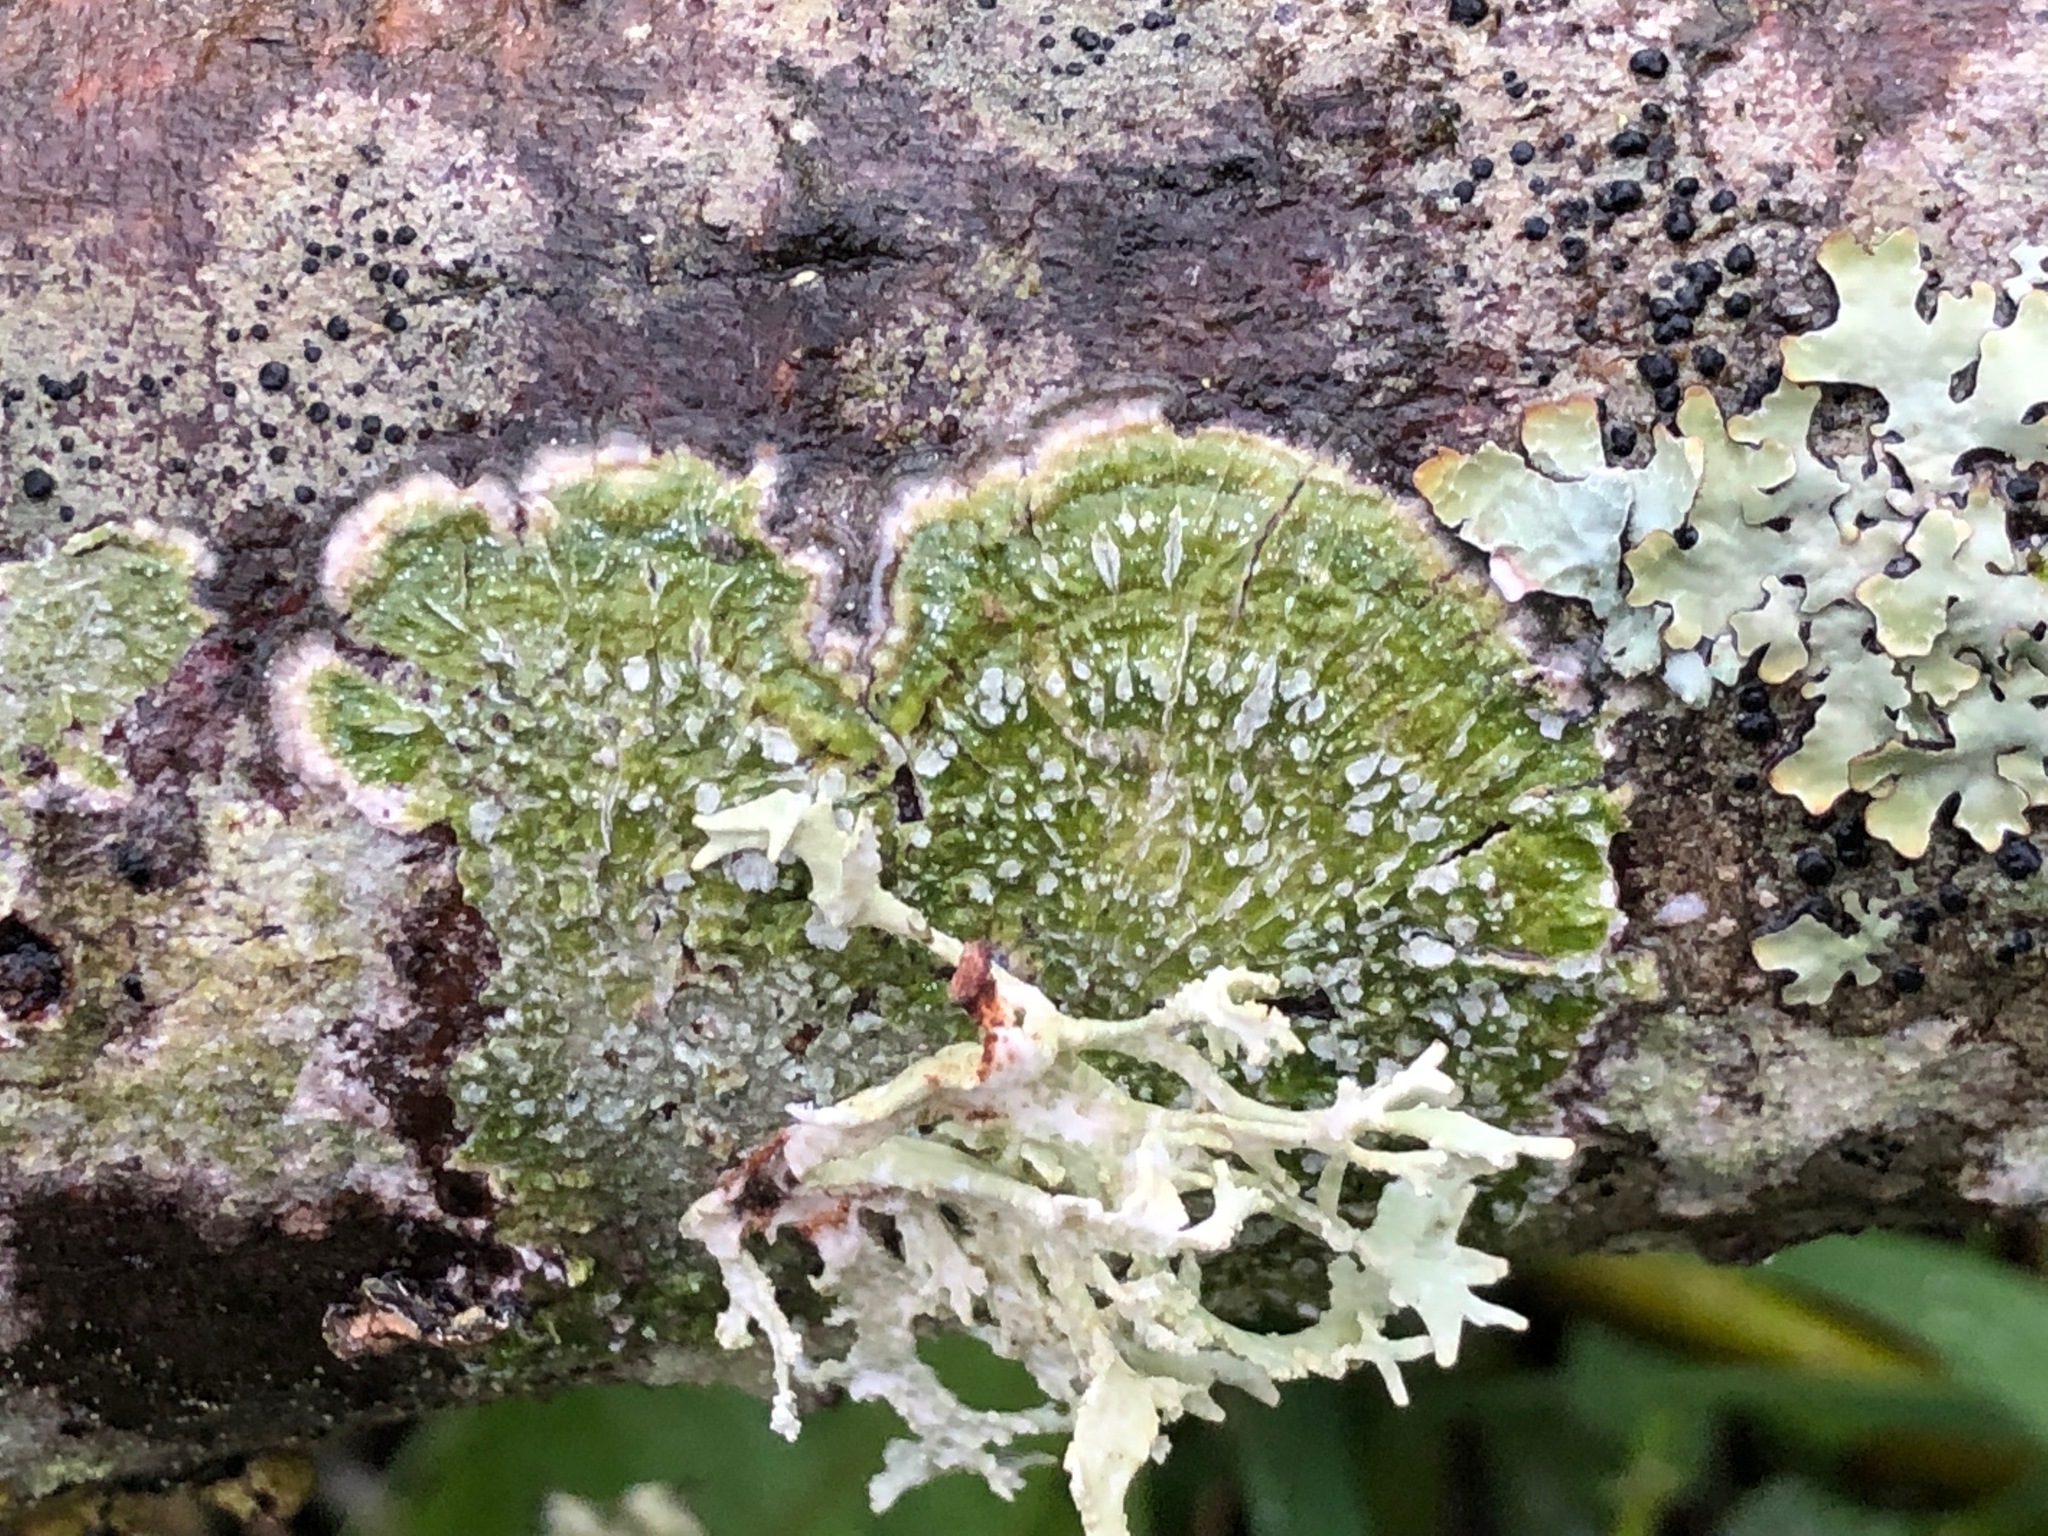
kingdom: Fungi
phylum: Ascomycota
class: Lecanoromycetes
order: Pertusariales
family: Pertusariaceae
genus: Lepra
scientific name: Lepra albescens
